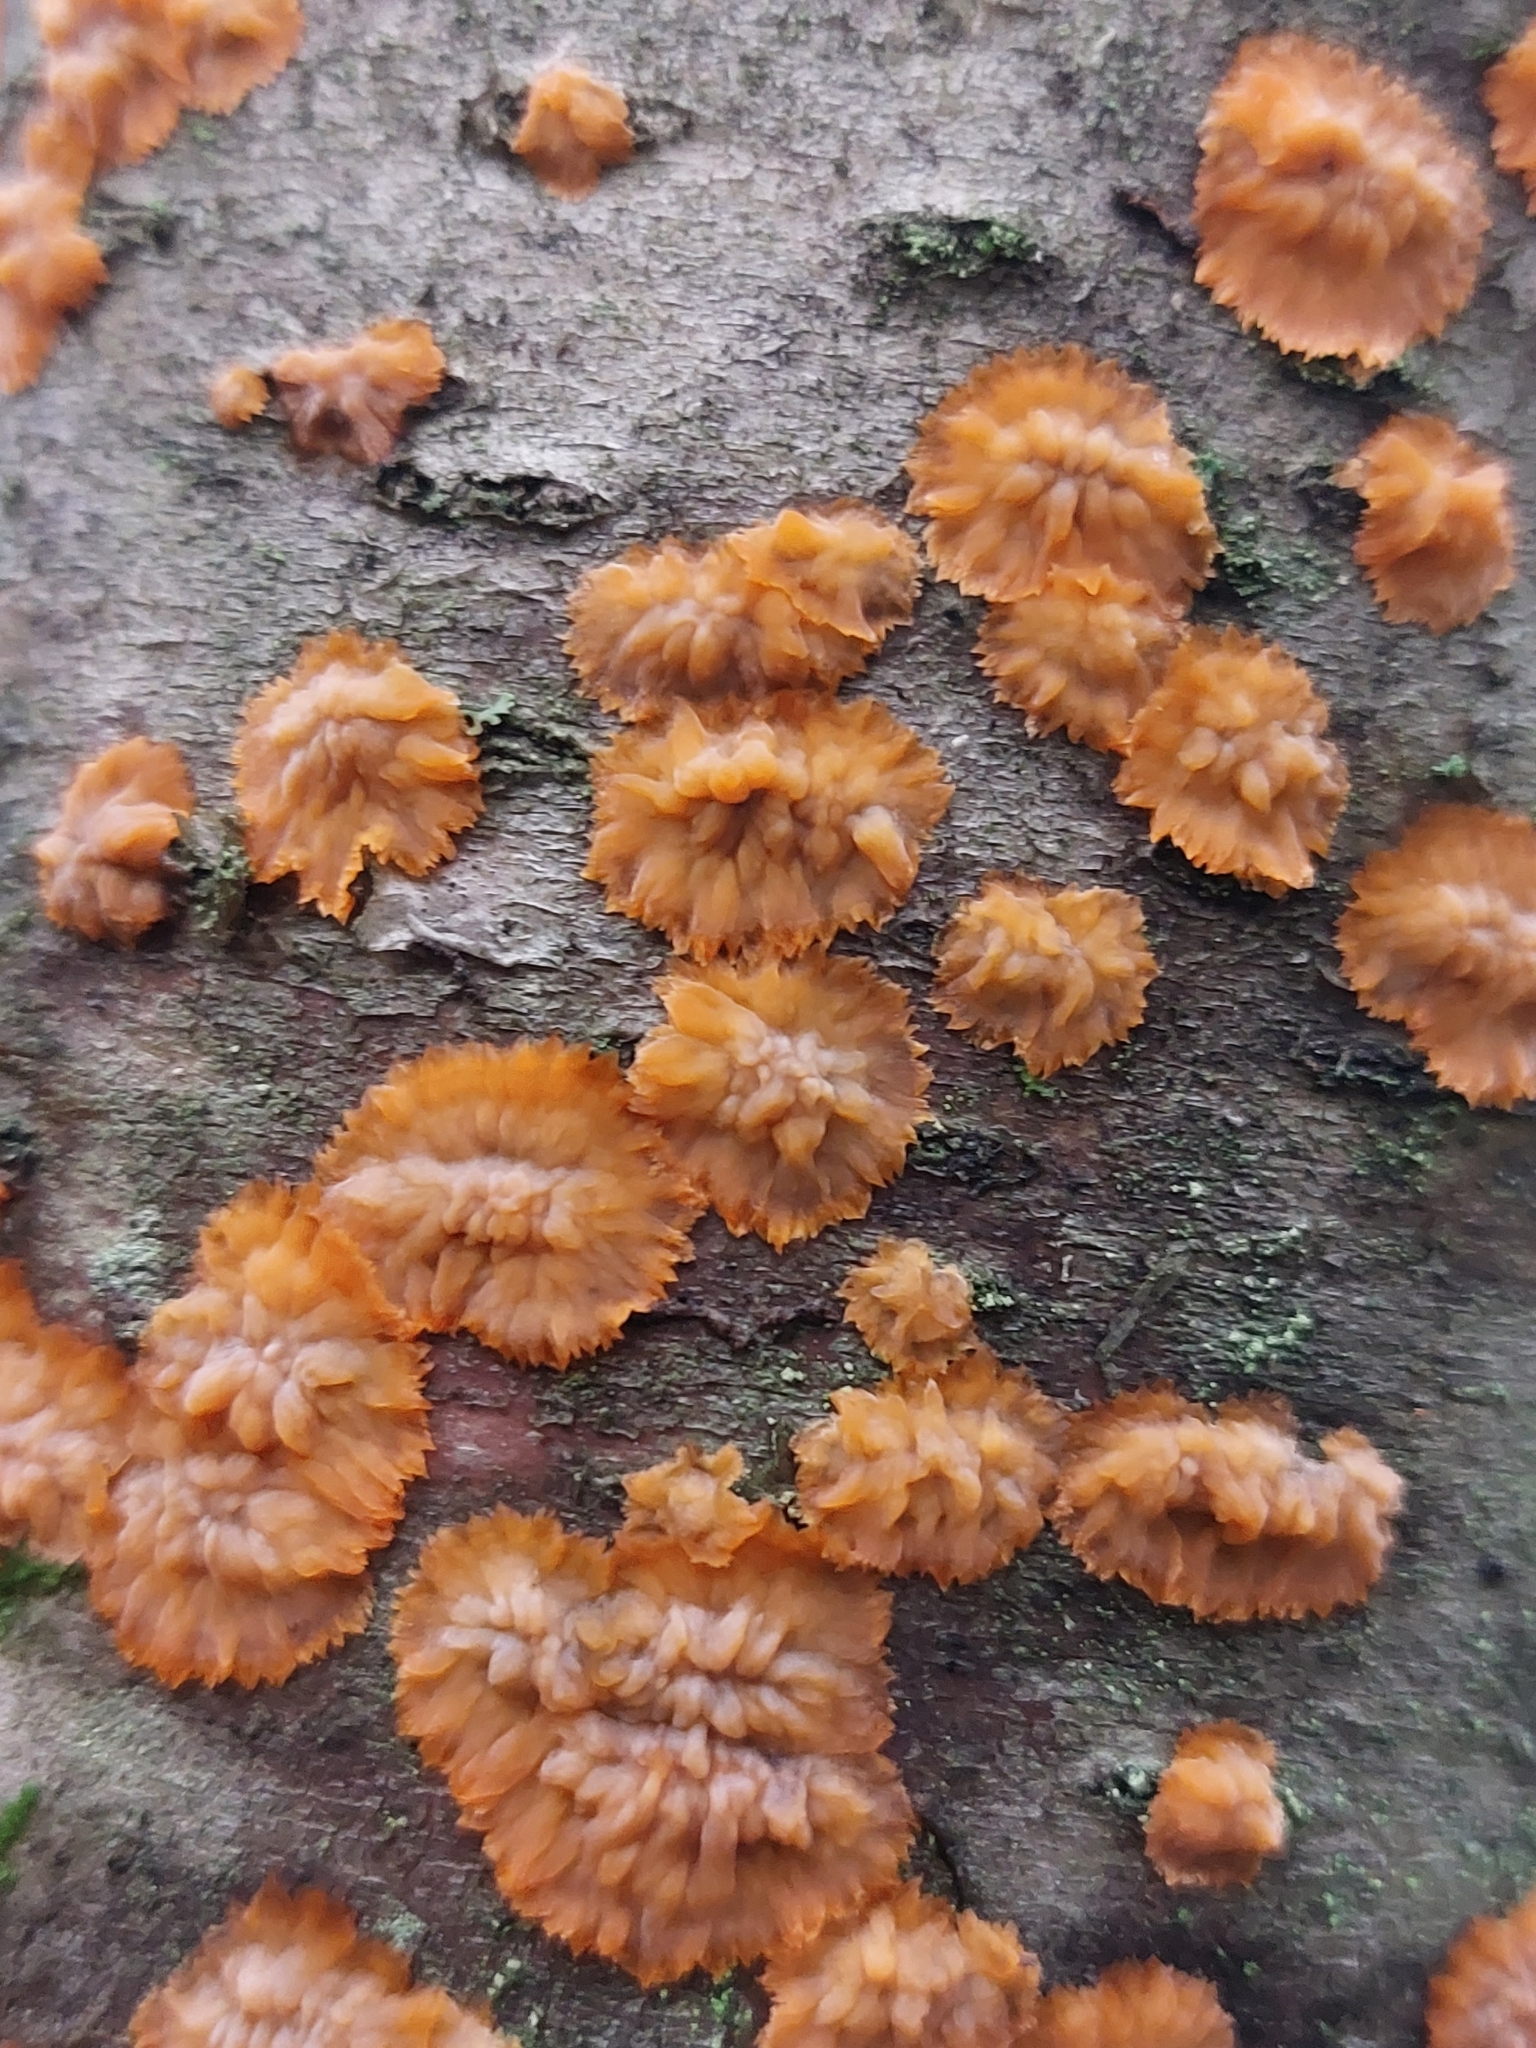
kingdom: Fungi
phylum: Basidiomycota
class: Agaricomycetes
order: Polyporales
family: Meruliaceae
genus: Phlebia
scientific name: Phlebia radiata
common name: Wrinkled crust
